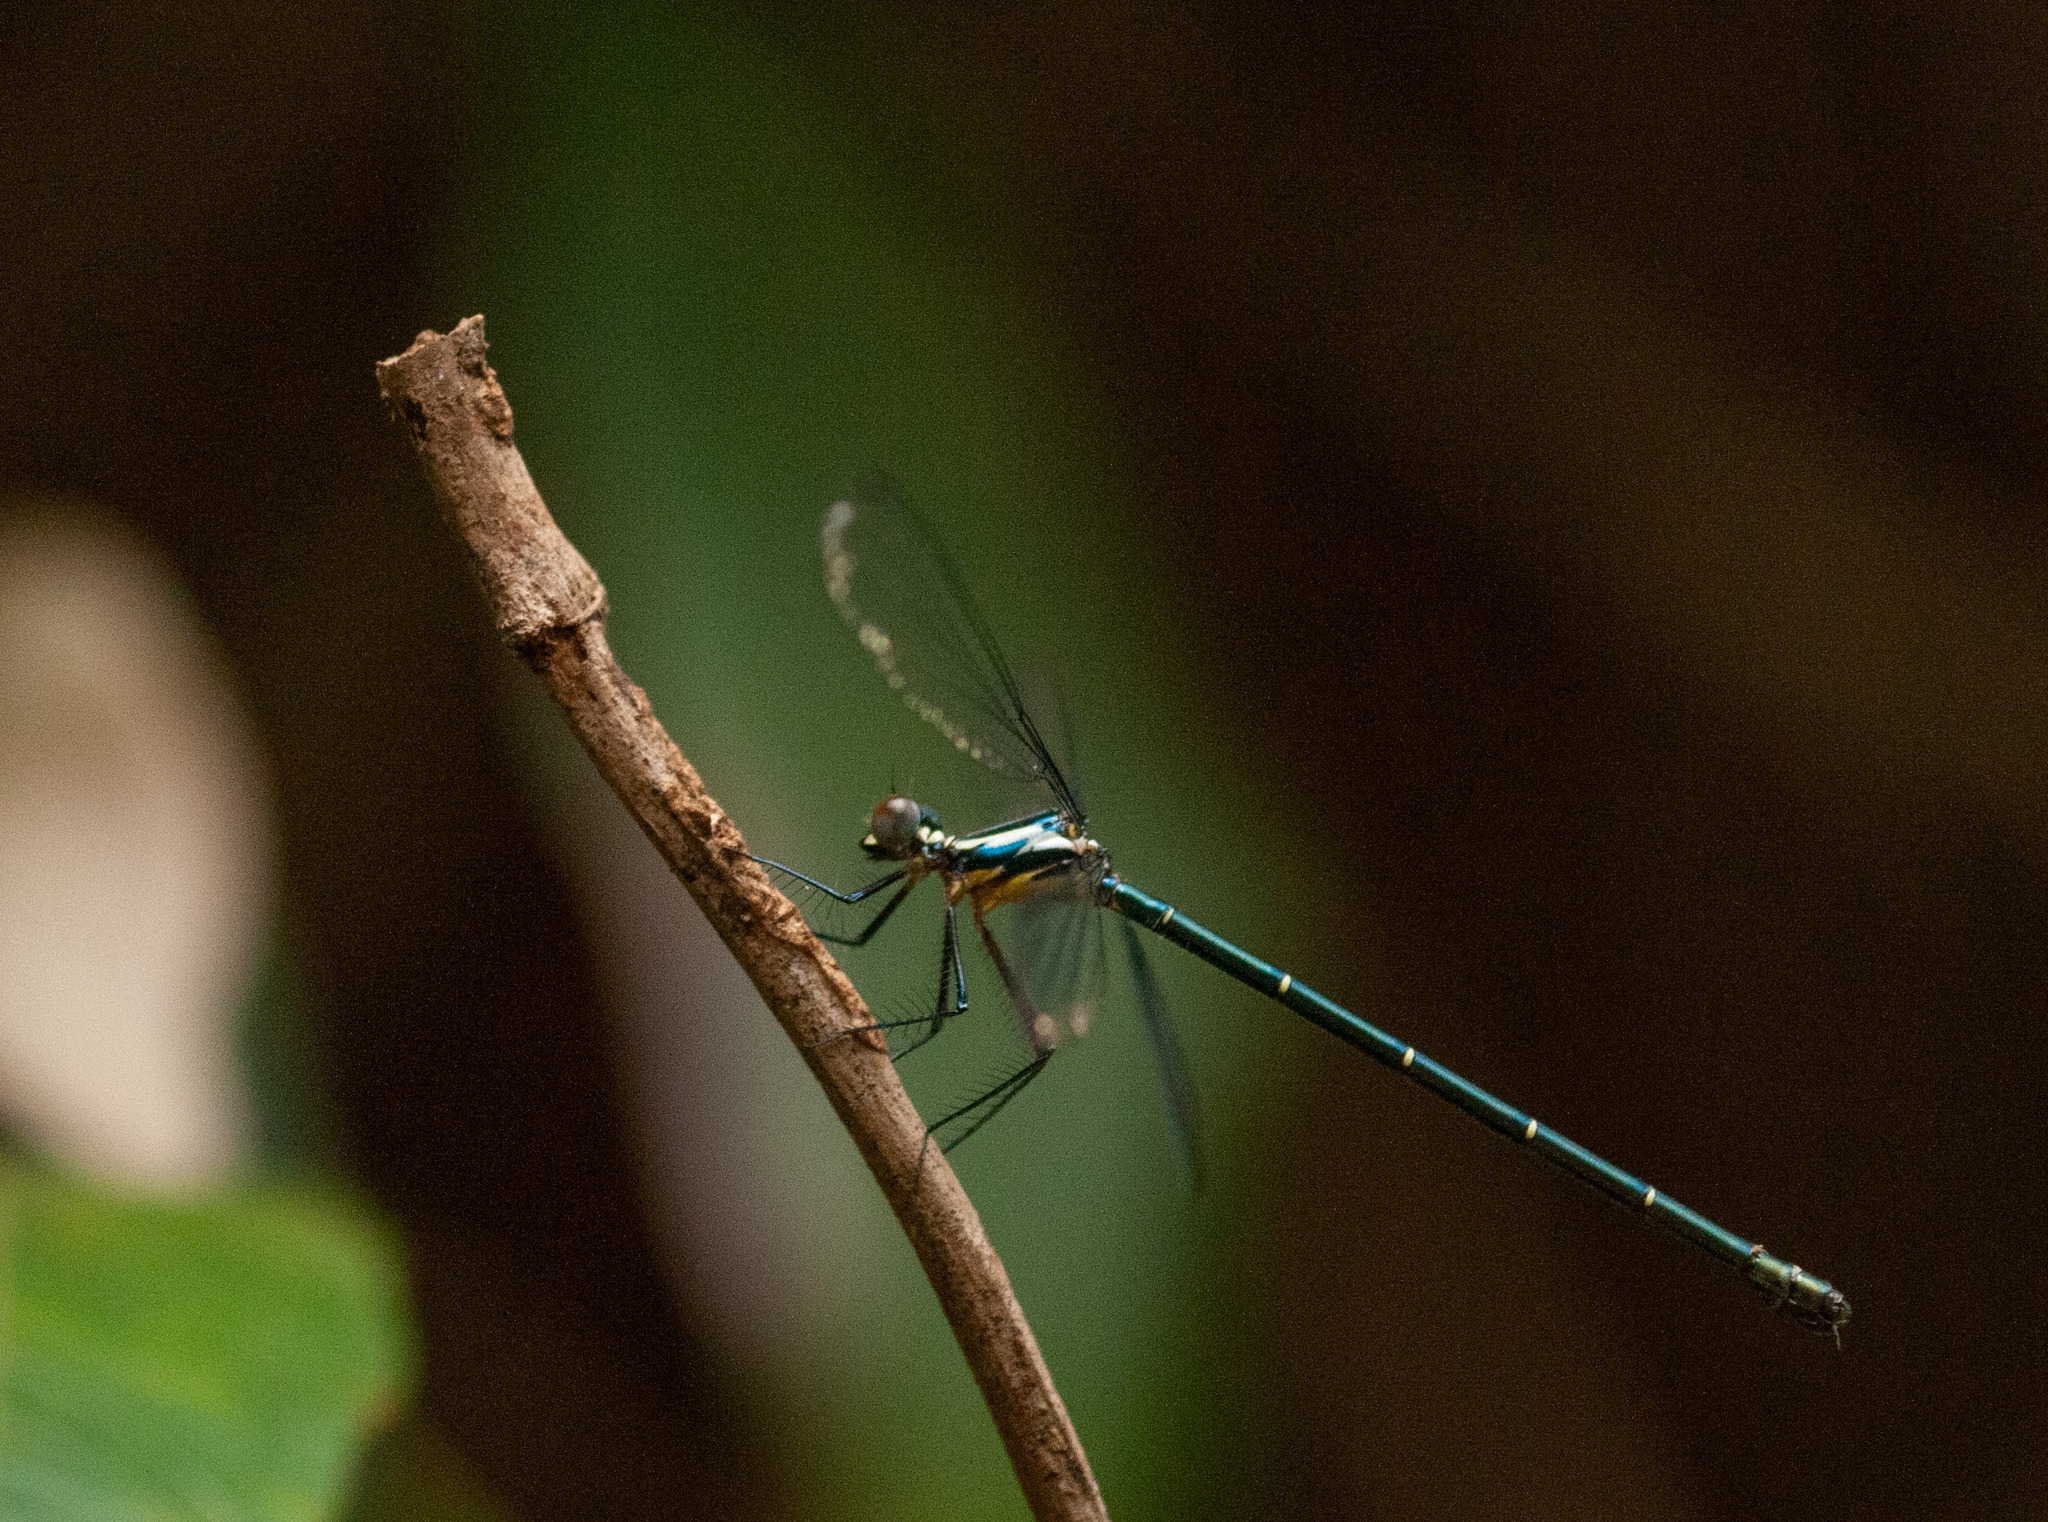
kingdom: Animalia
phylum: Arthropoda
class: Insecta
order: Odonata
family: Argiolestidae
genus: Austroargiolestes
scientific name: Austroargiolestes icteromelas
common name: Common flatwing
